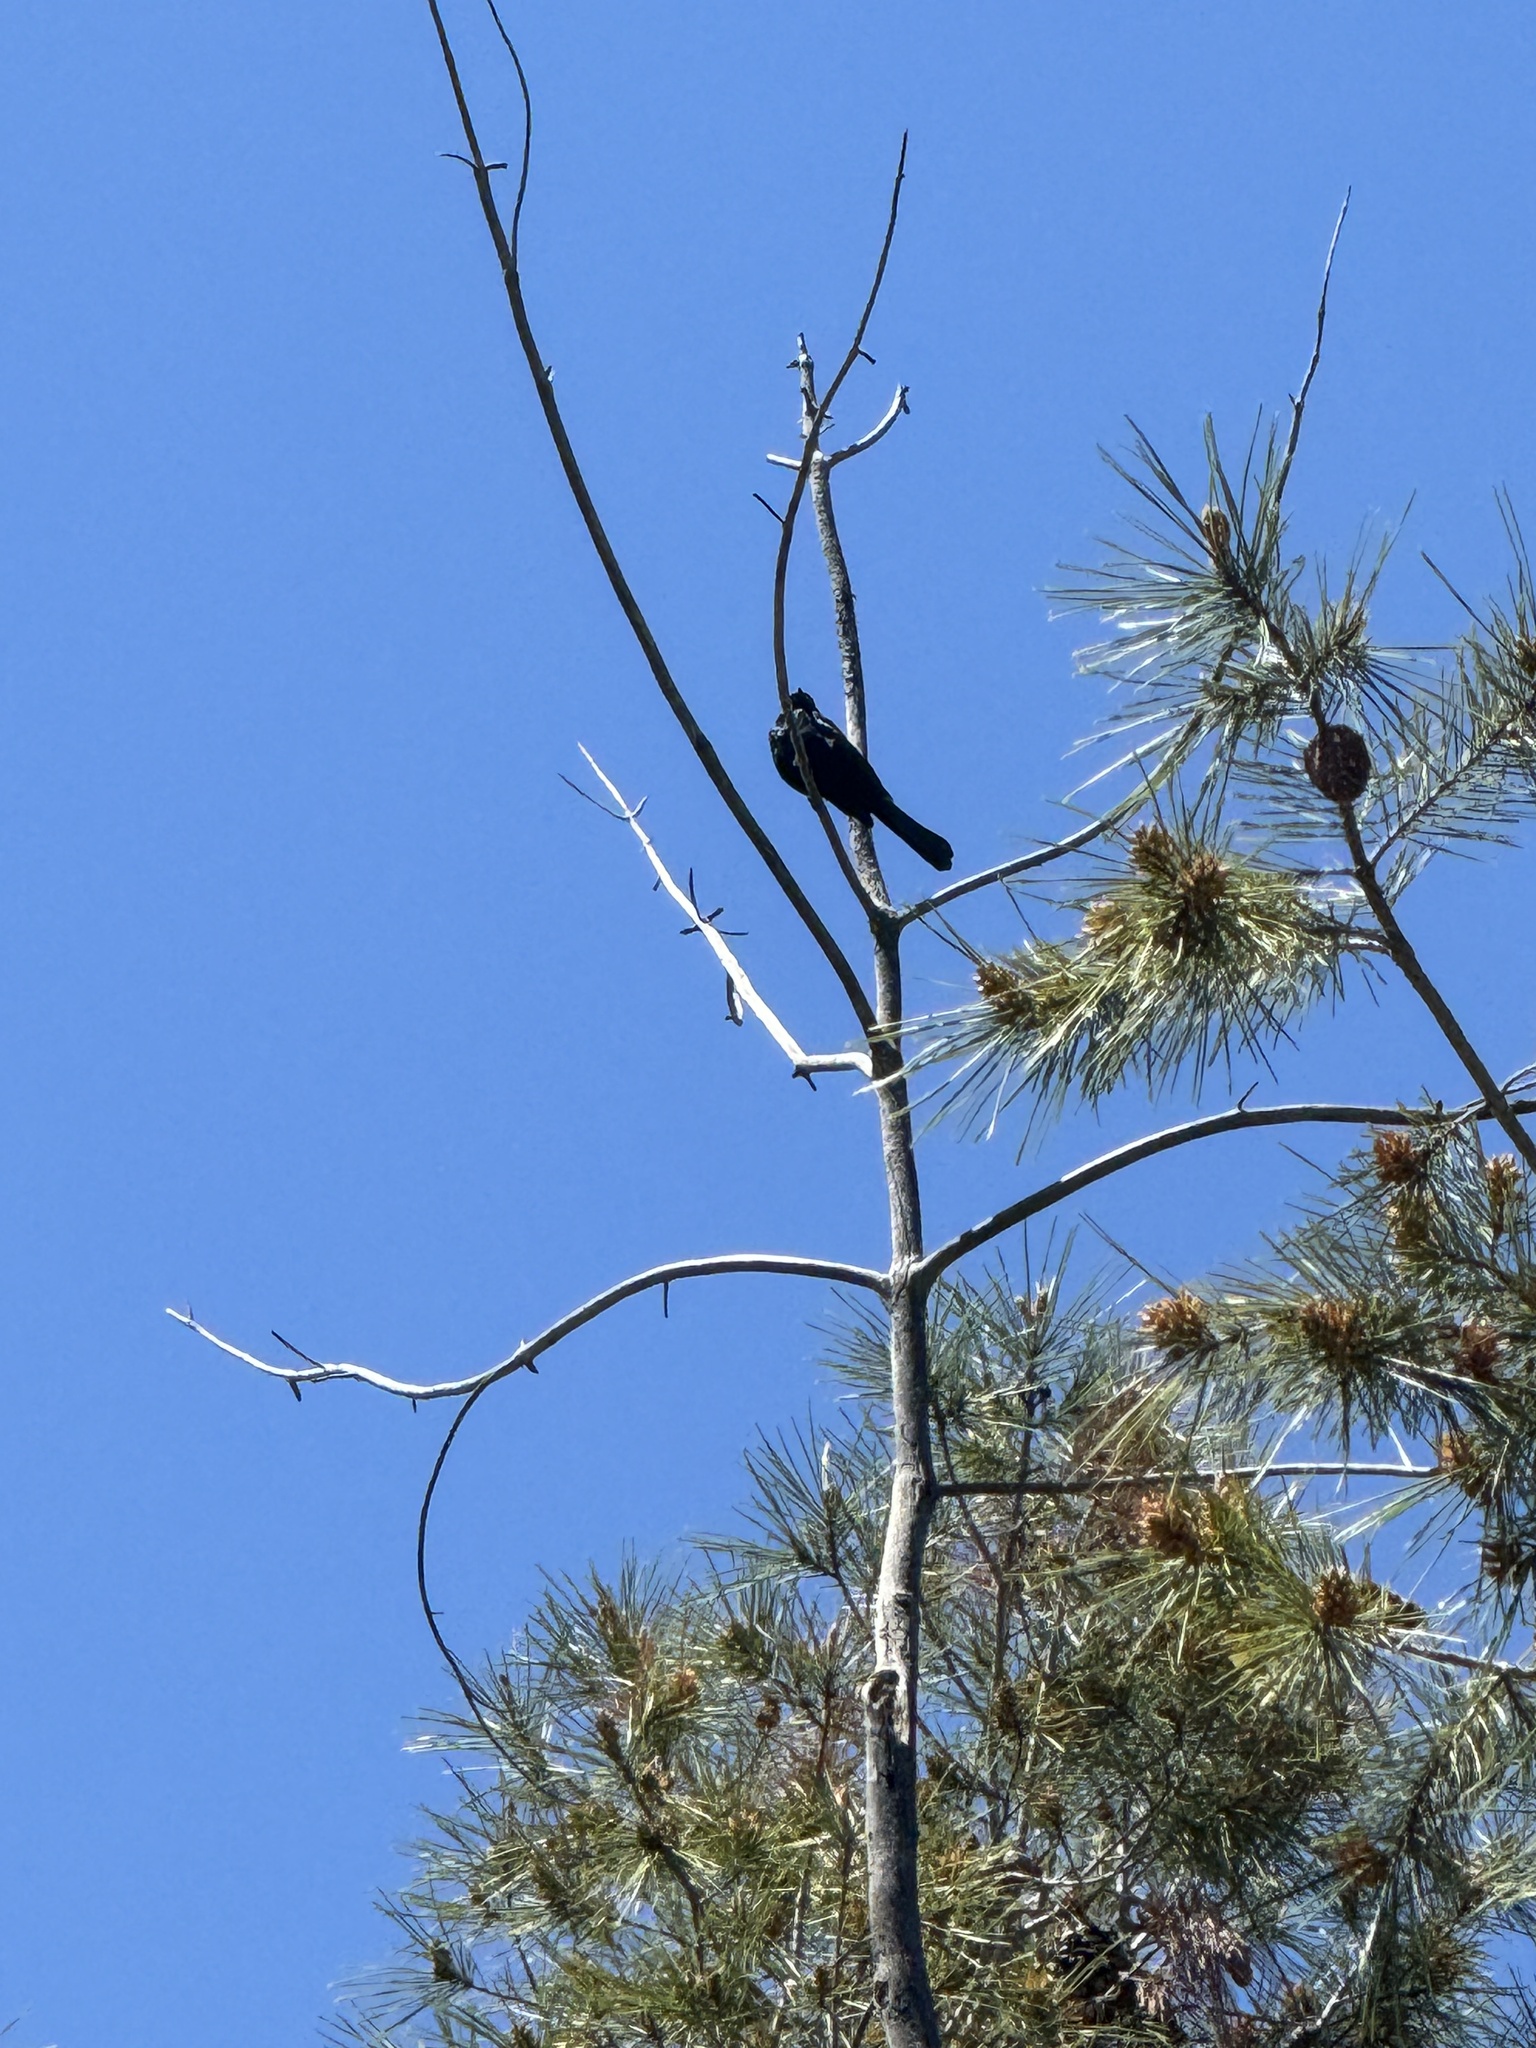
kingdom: Animalia
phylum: Chordata
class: Aves
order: Passeriformes
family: Ptilogonatidae
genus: Phainopepla
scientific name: Phainopepla nitens
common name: Phainopepla
